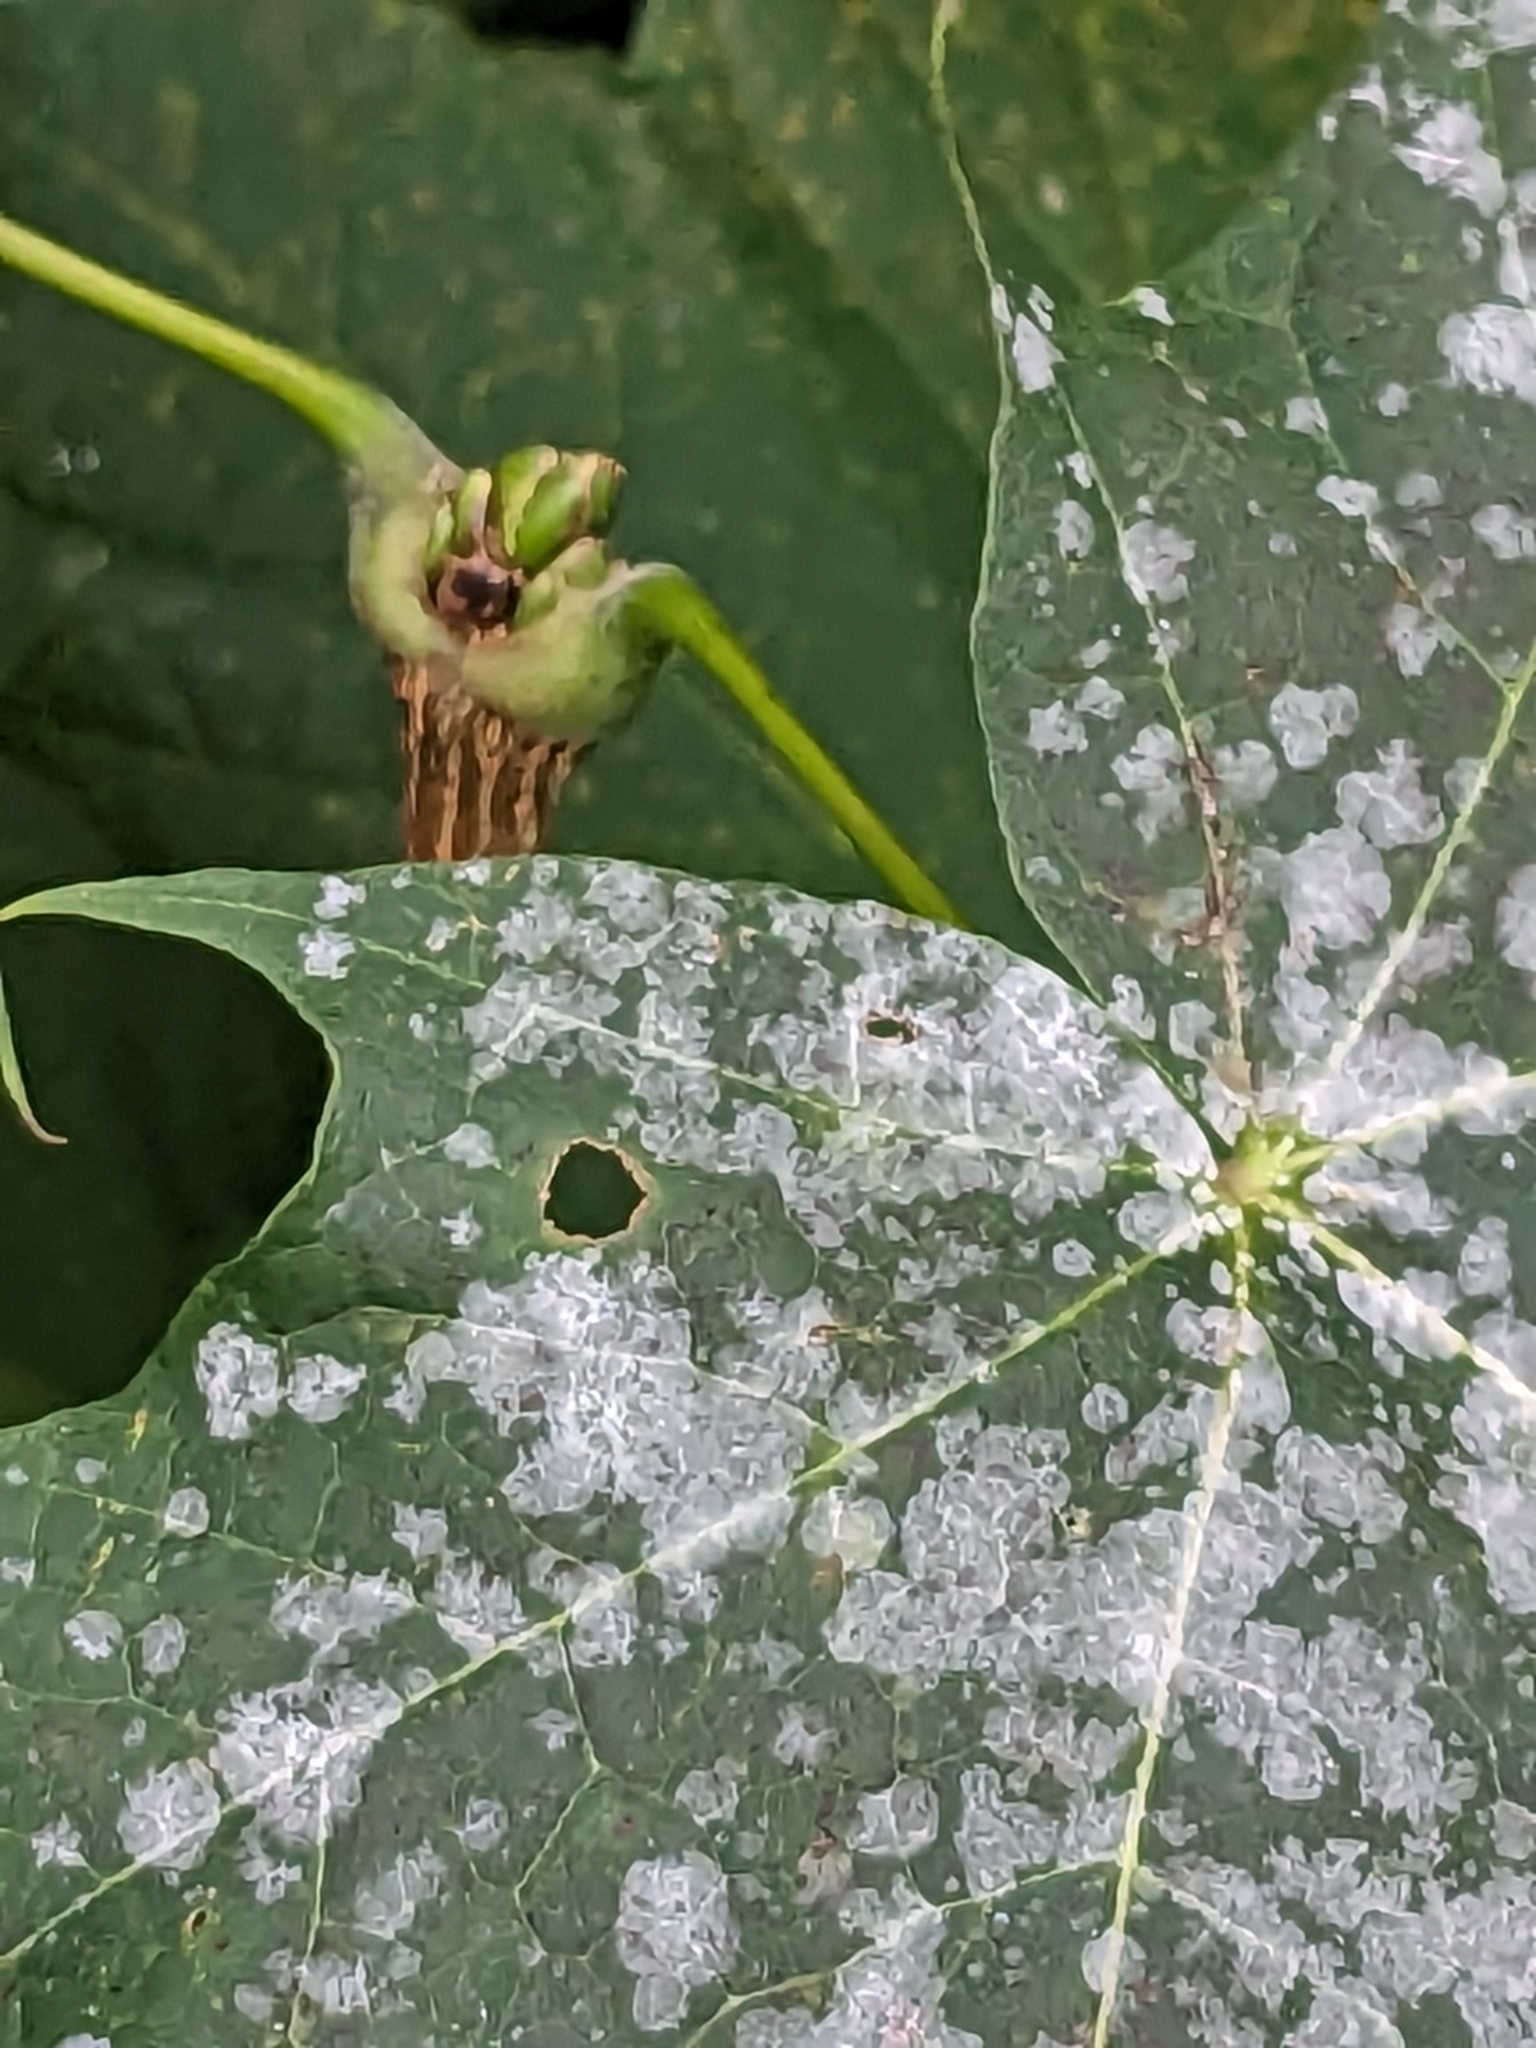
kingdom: Fungi
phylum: Ascomycota
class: Leotiomycetes
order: Helotiales
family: Erysiphaceae
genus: Sawadaea
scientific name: Sawadaea tulasnei
